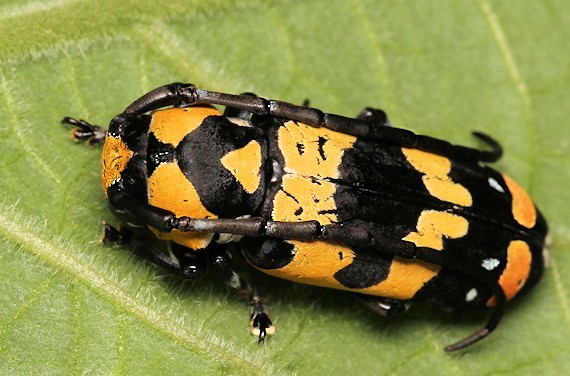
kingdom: Animalia
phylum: Arthropoda
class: Insecta
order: Coleoptera
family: Cerambycidae
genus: Tragocephala
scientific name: Tragocephala mima
